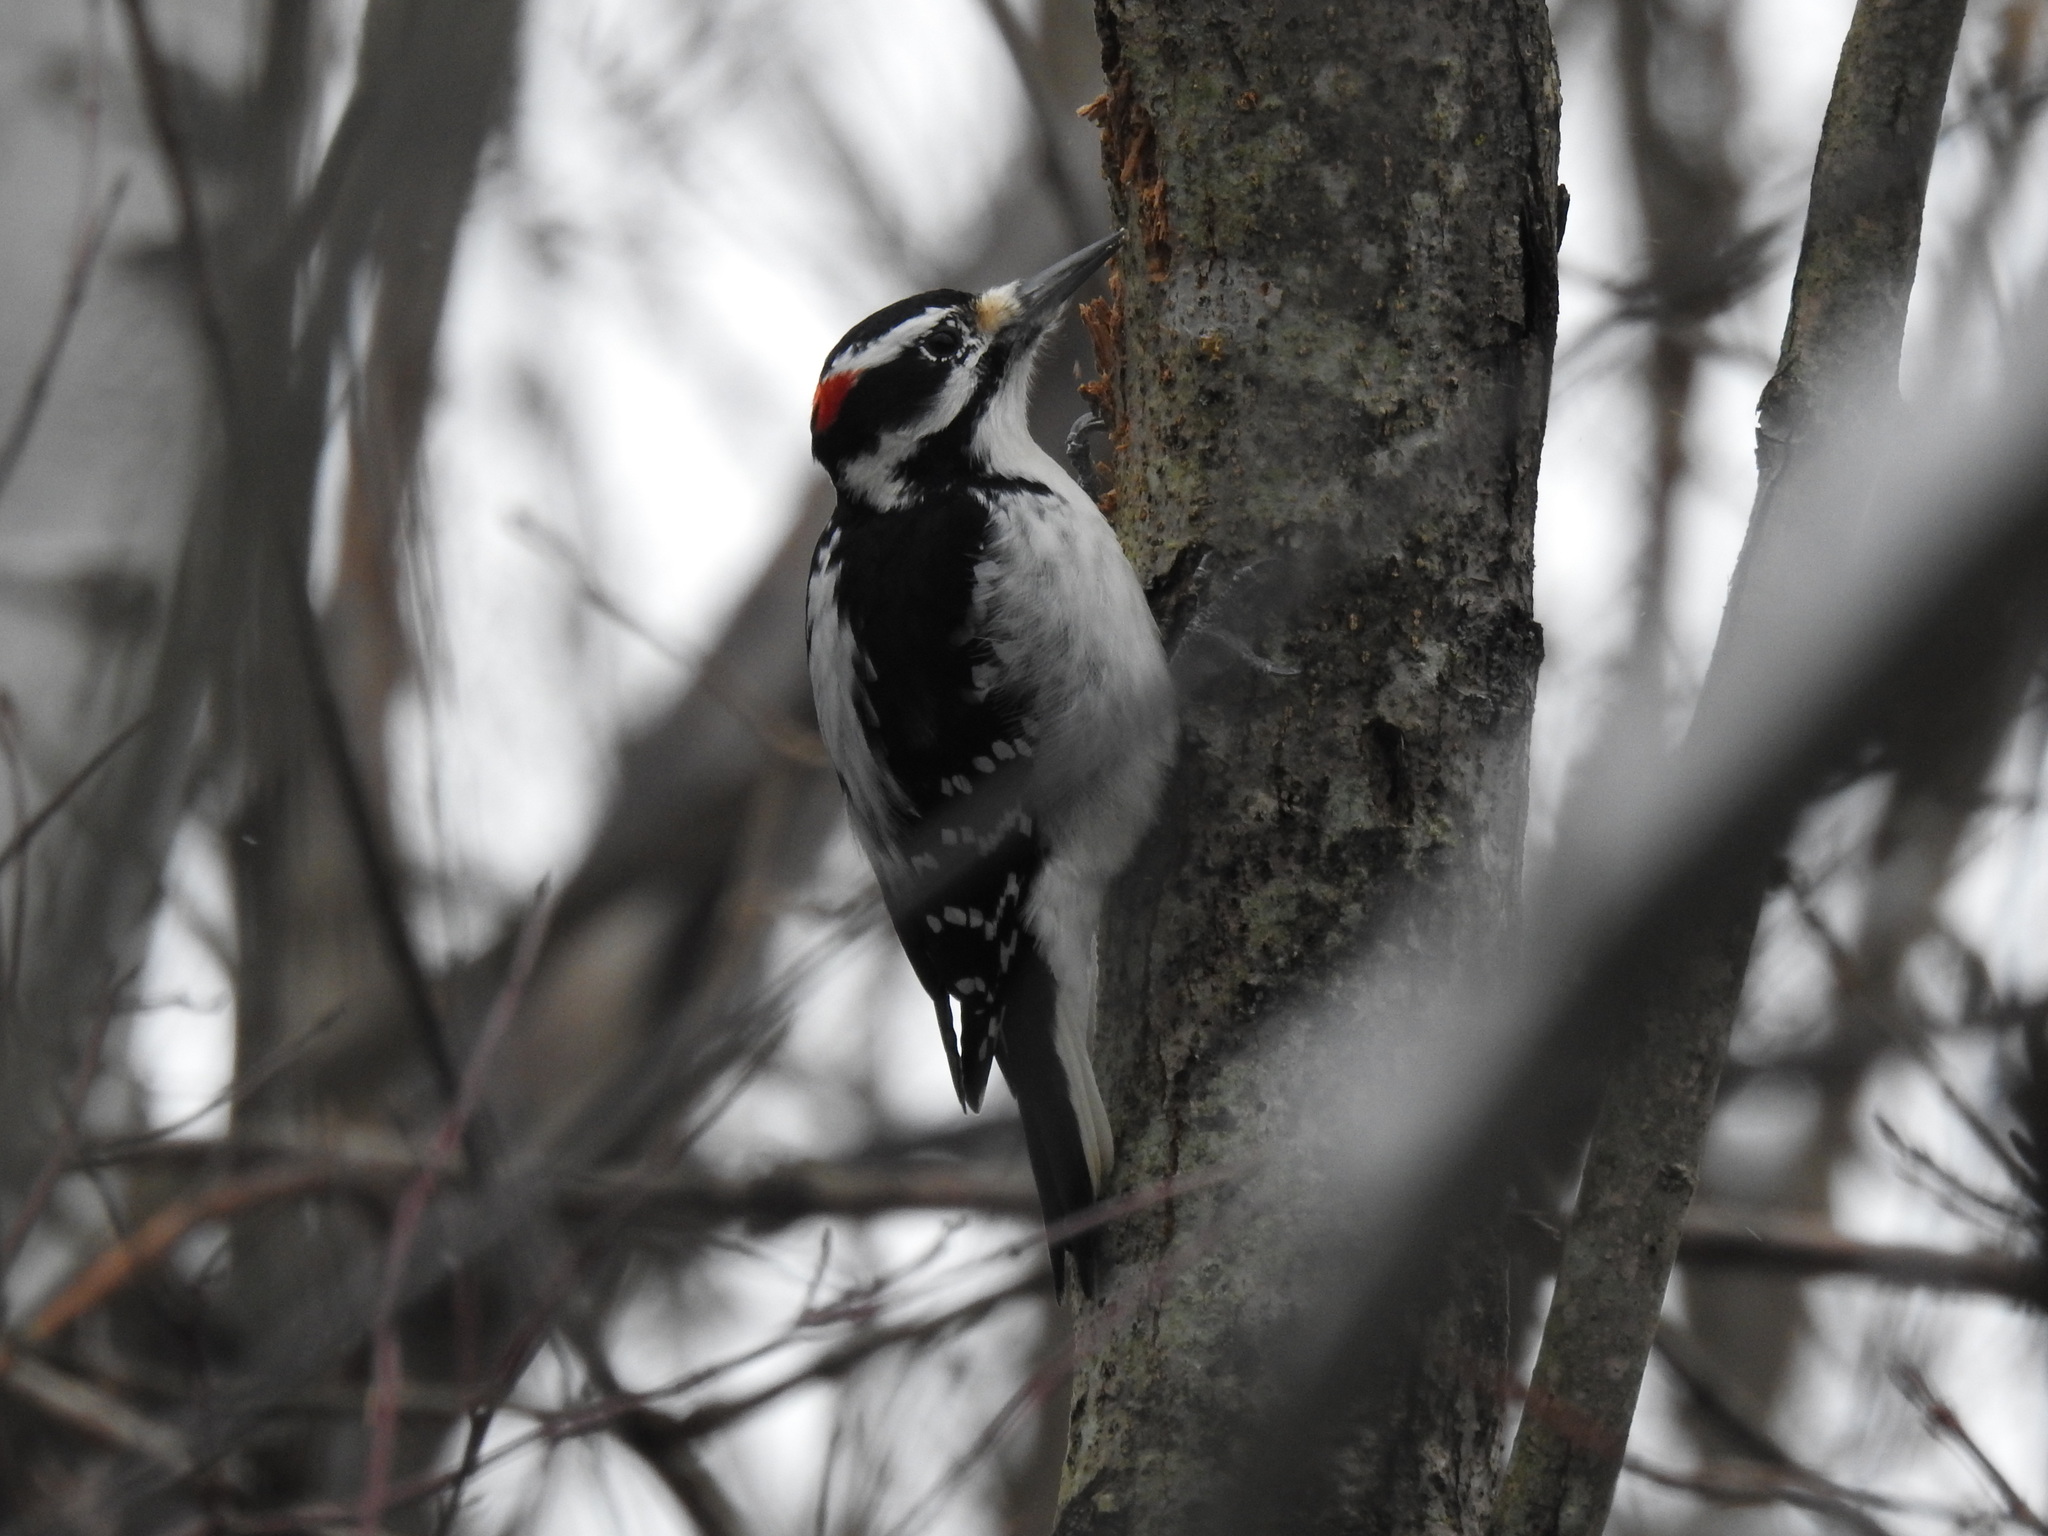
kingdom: Animalia
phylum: Chordata
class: Aves
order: Piciformes
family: Picidae
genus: Leuconotopicus
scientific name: Leuconotopicus villosus
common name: Hairy woodpecker
